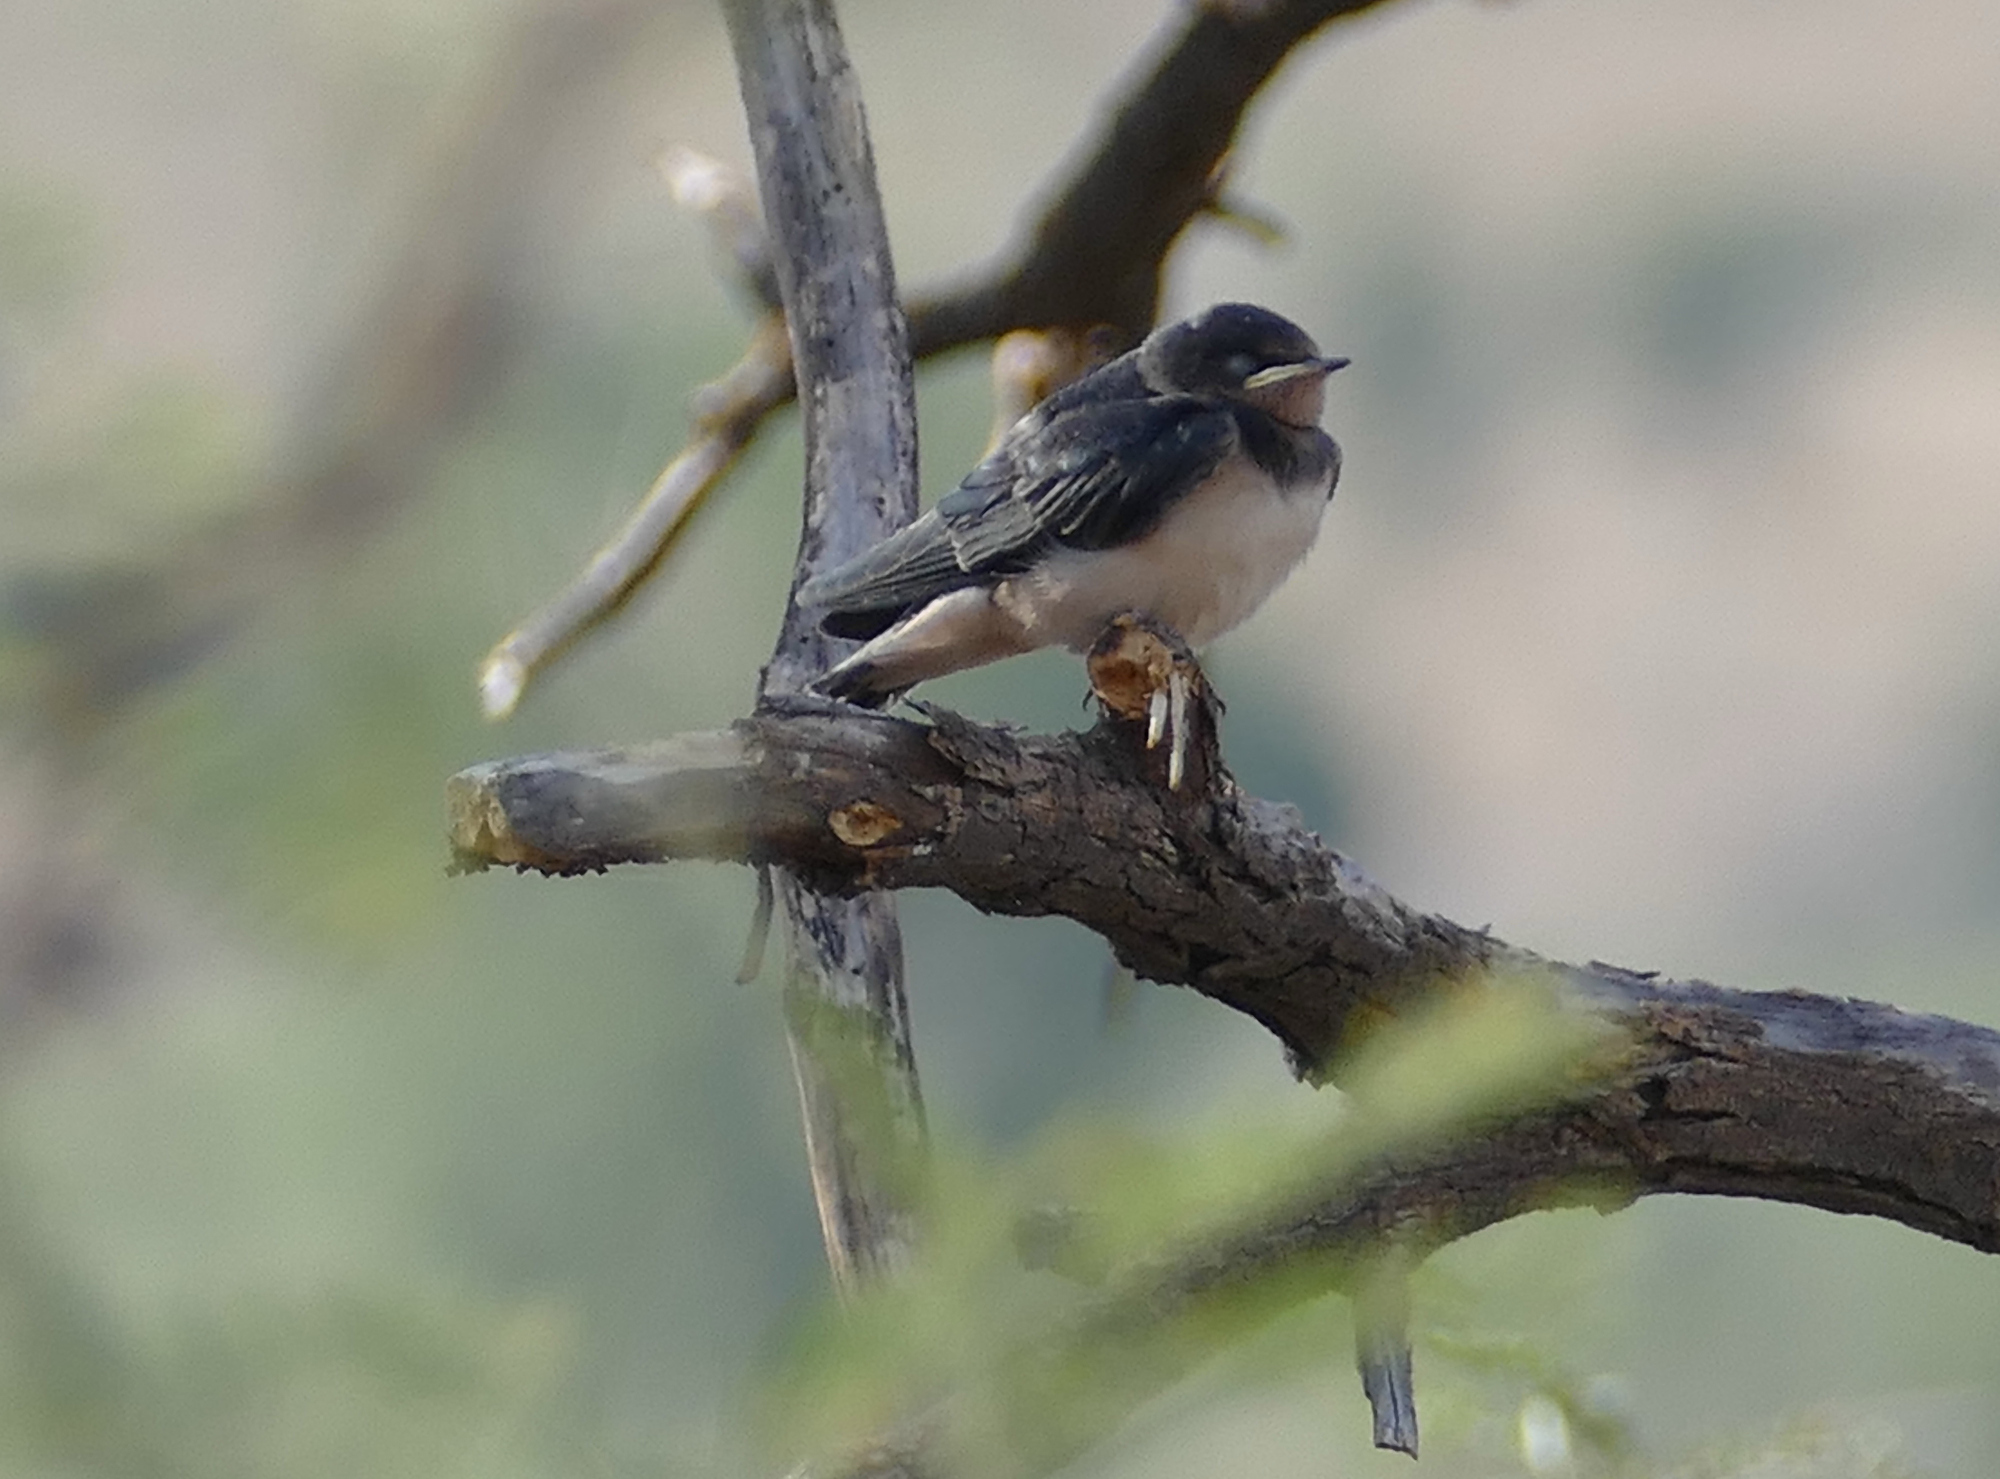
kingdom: Animalia
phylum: Chordata
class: Aves
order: Passeriformes
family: Hirundinidae
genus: Hirundo
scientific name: Hirundo rustica
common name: Barn swallow
